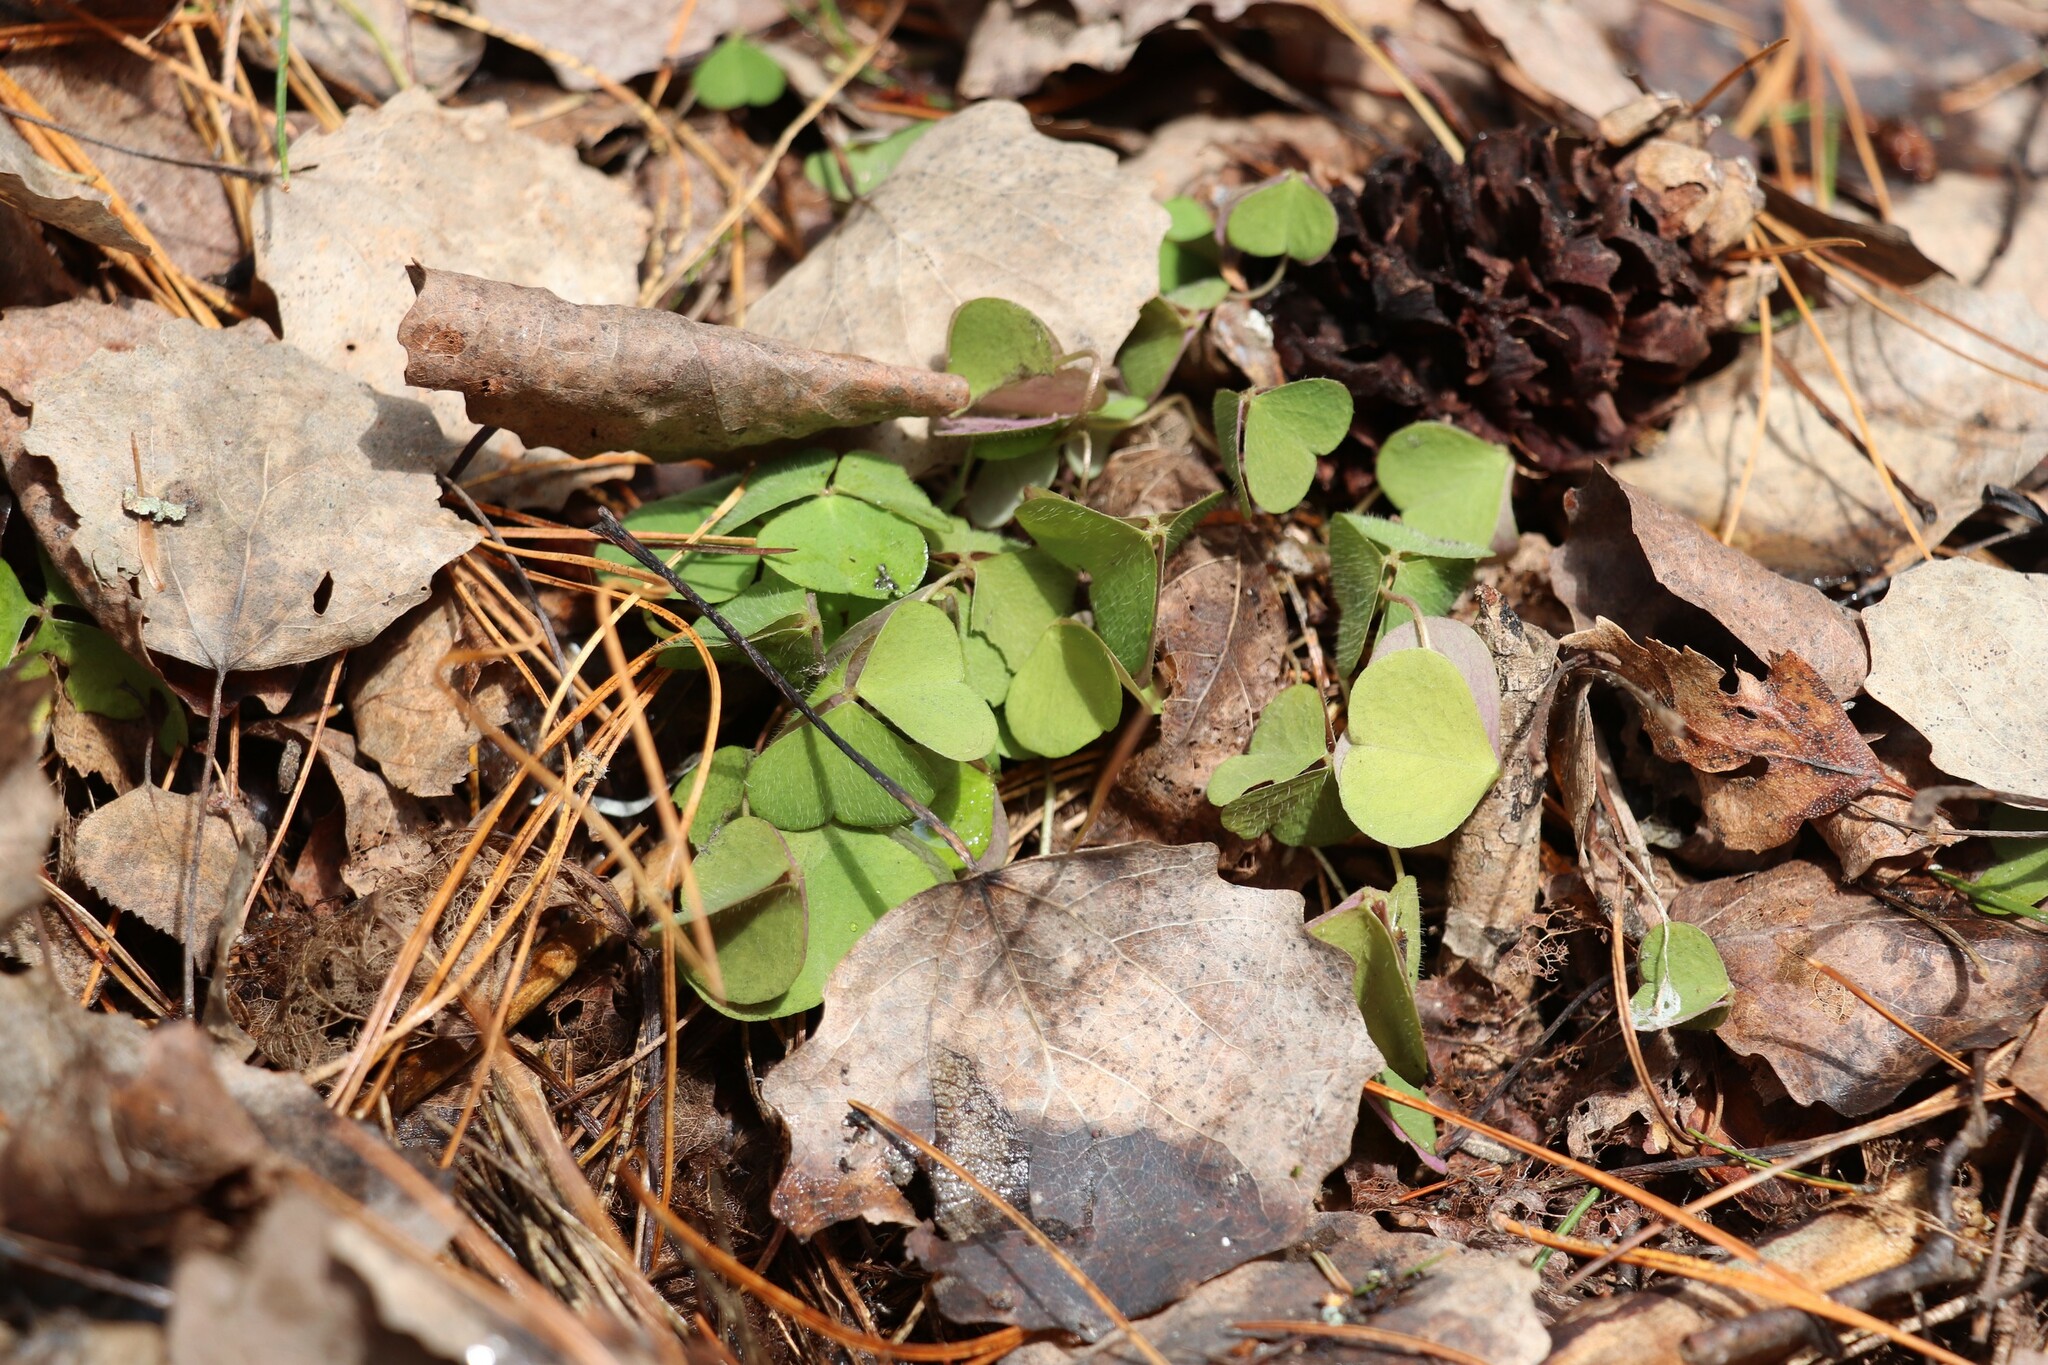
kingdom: Plantae
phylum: Tracheophyta
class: Magnoliopsida
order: Oxalidales
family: Oxalidaceae
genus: Oxalis
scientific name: Oxalis acetosella
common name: Wood-sorrel
